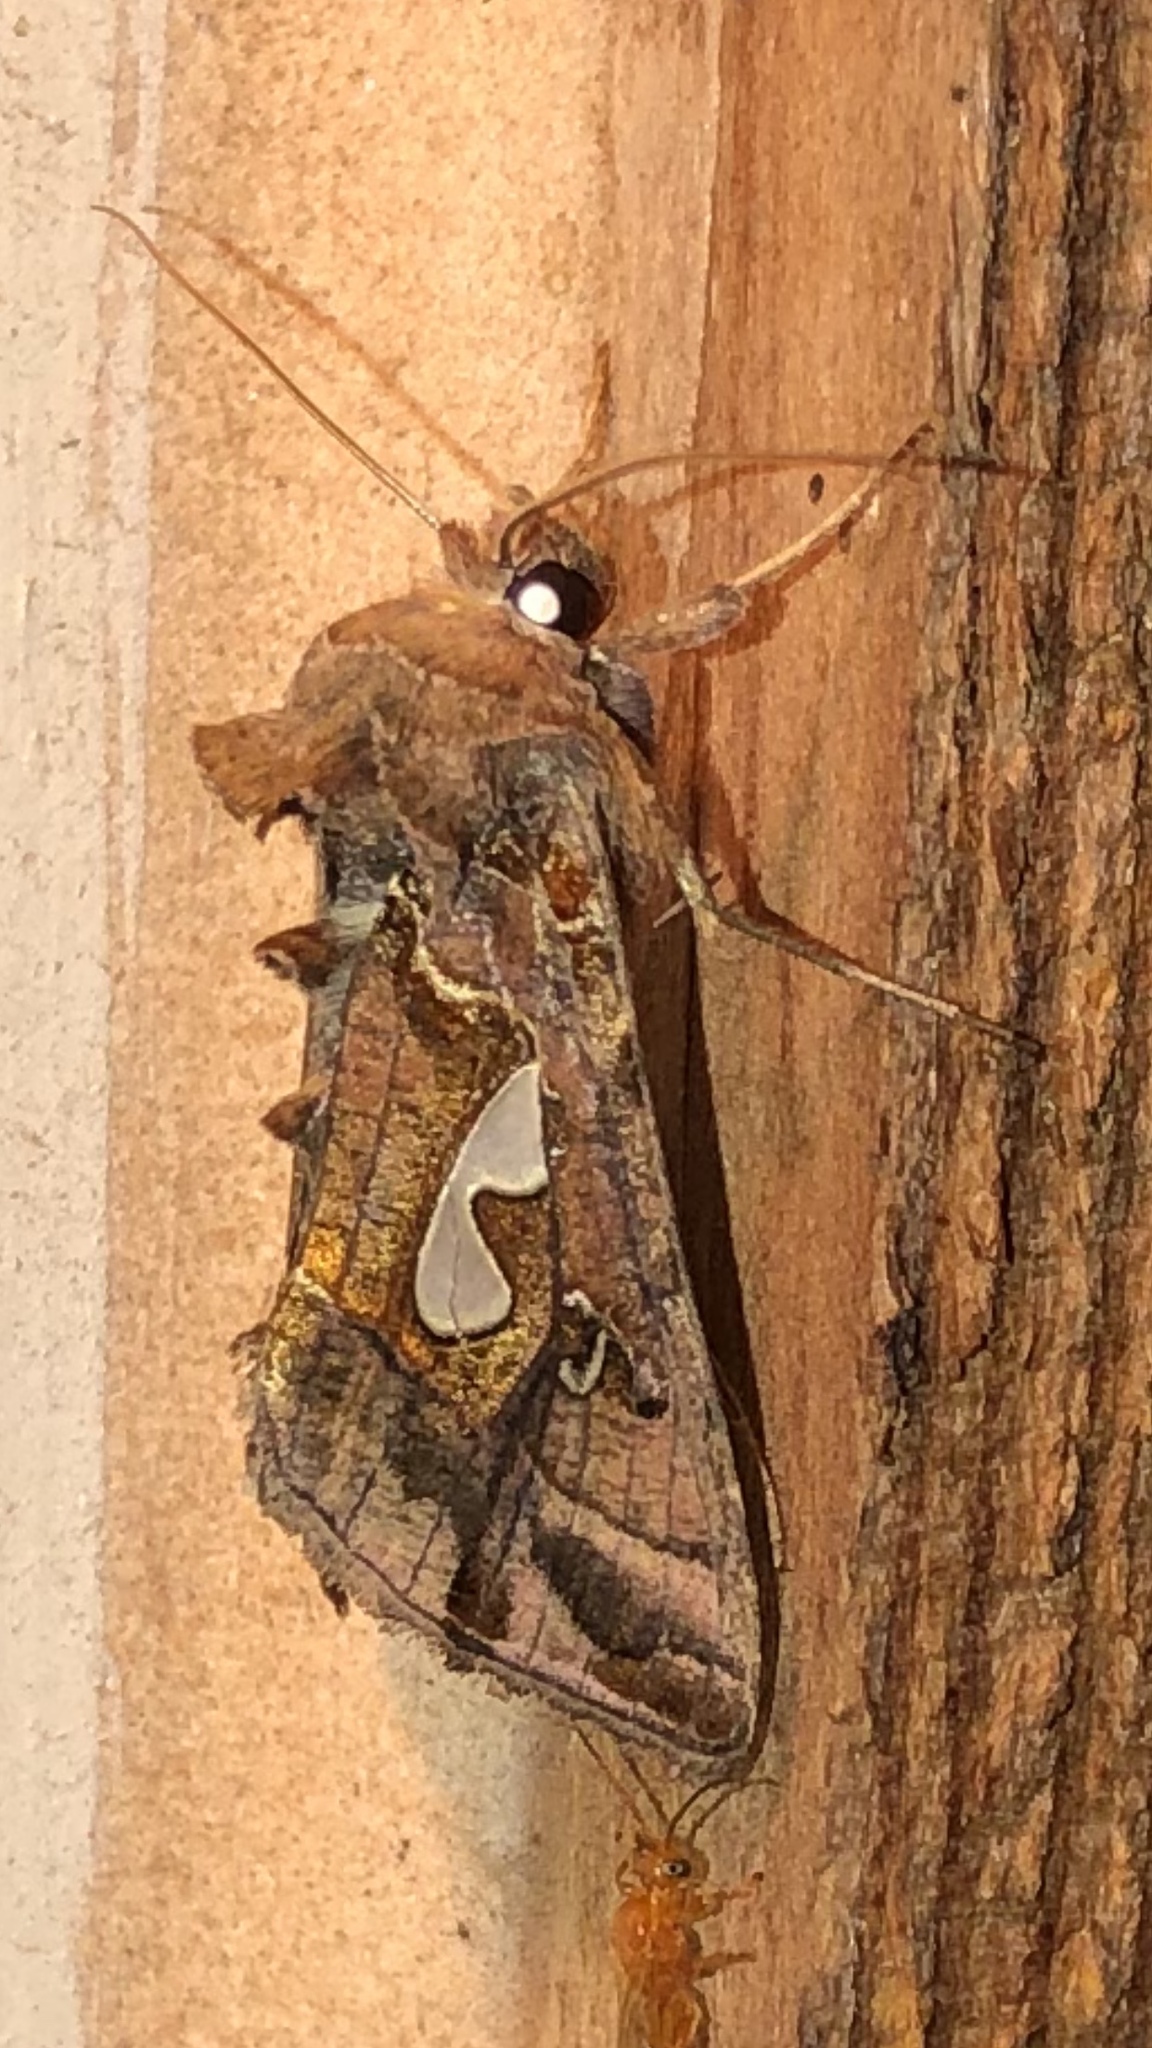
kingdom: Animalia
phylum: Arthropoda
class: Insecta
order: Lepidoptera
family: Noctuidae
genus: Megalographa
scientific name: Megalographa biloba
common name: Cutworm
